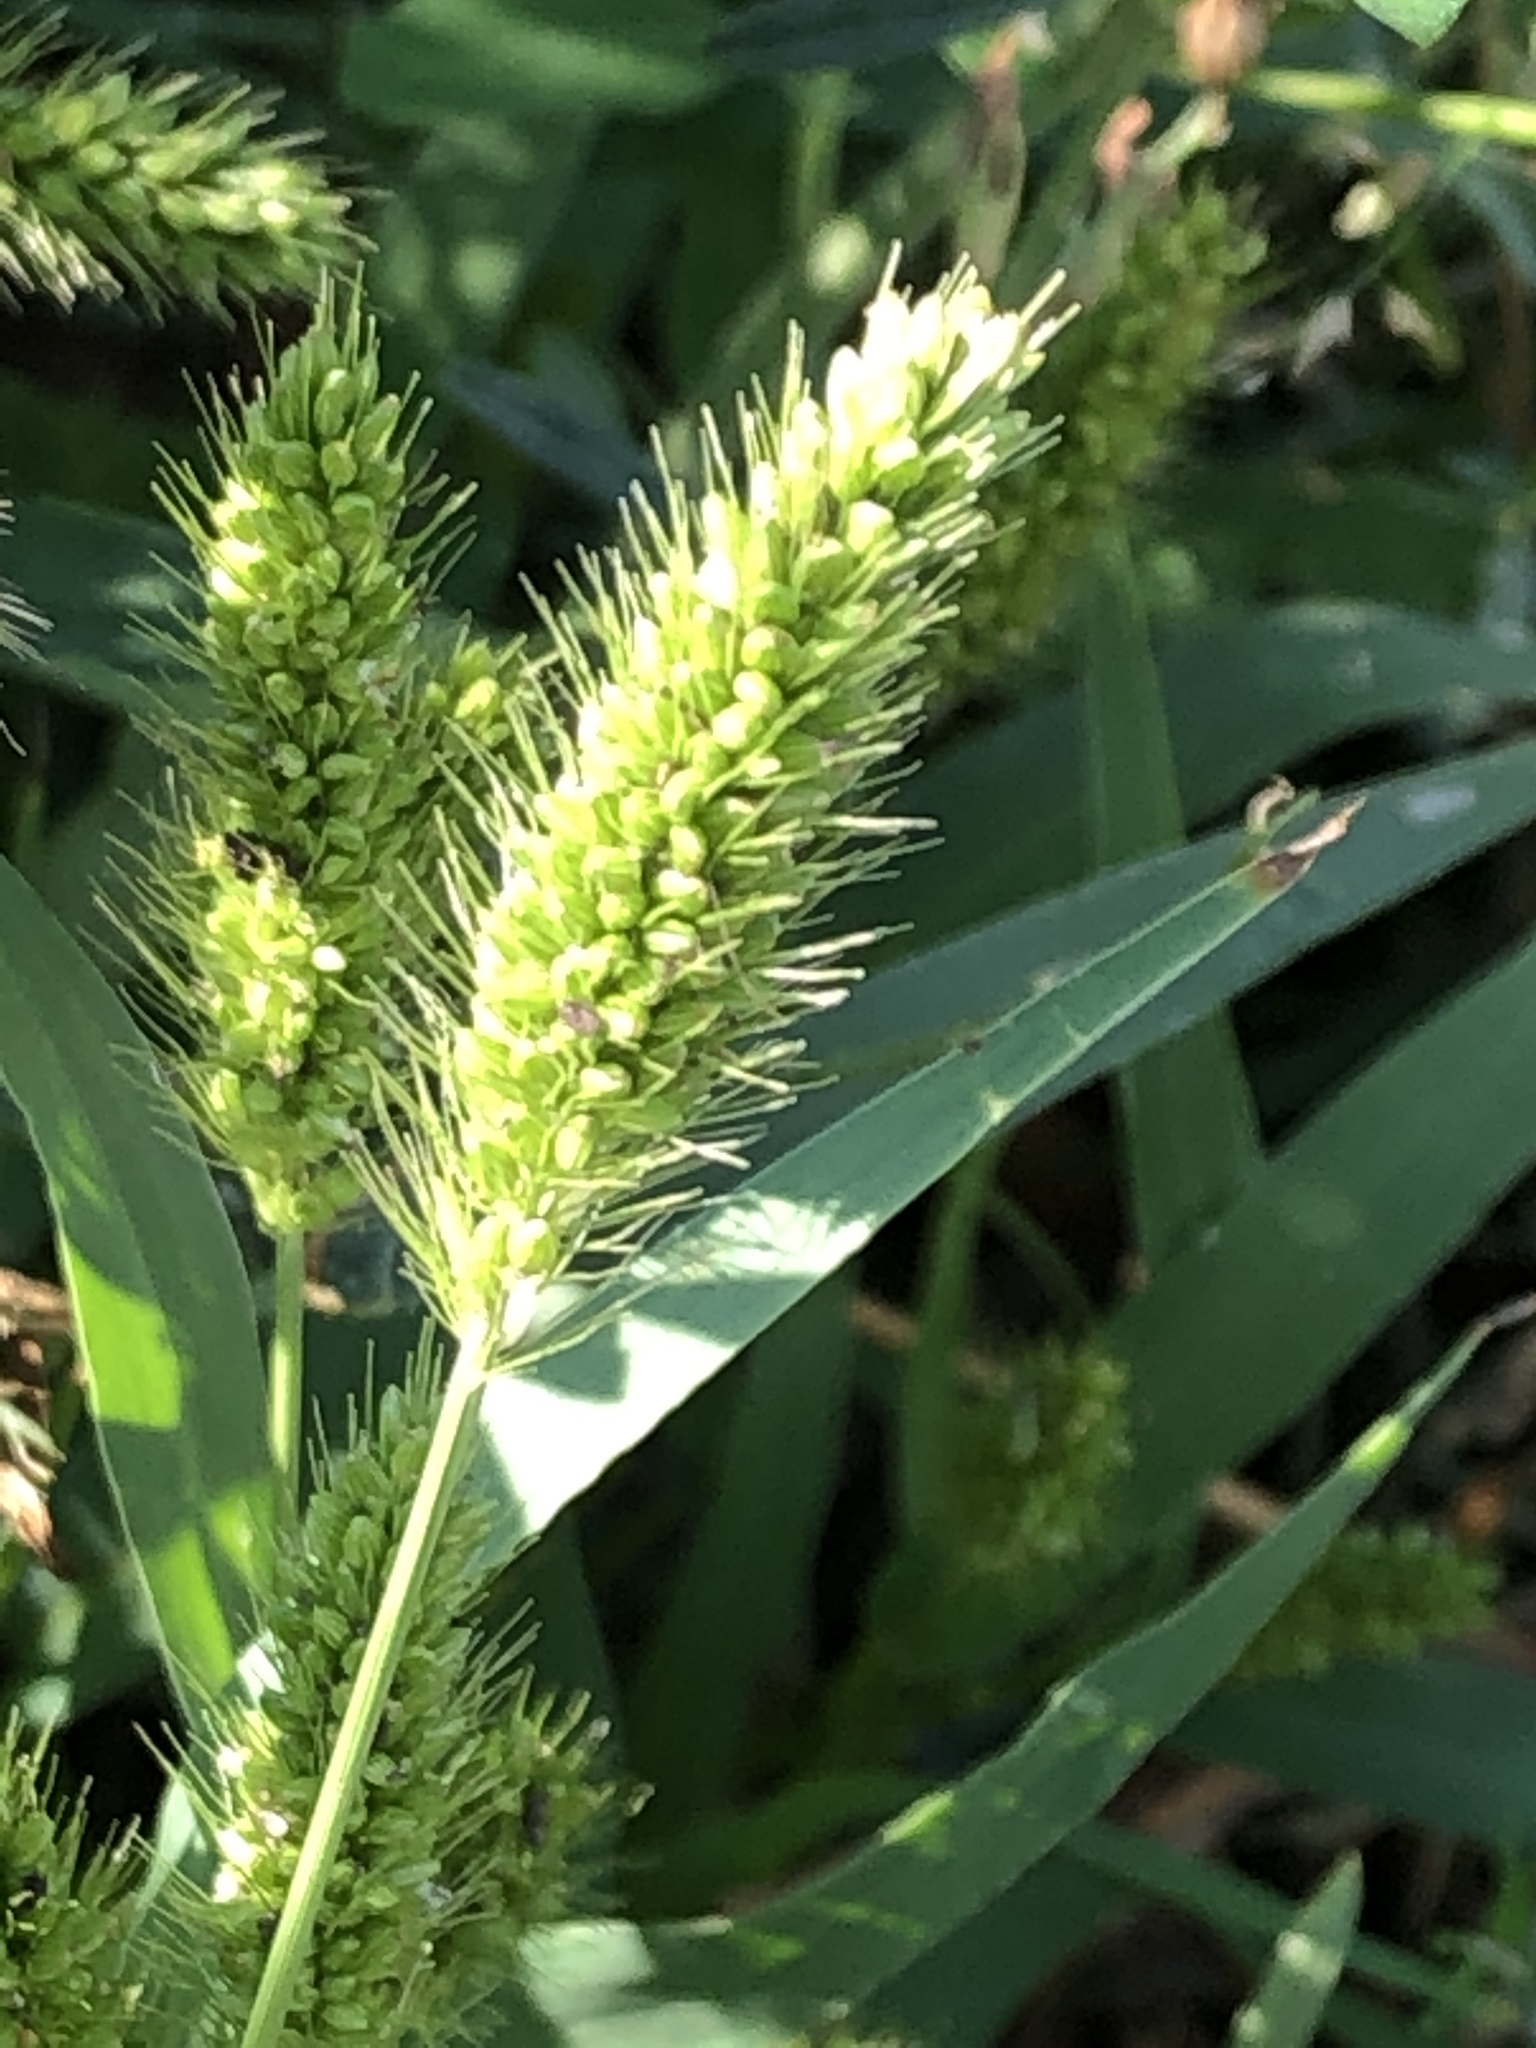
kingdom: Plantae
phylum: Tracheophyta
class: Liliopsida
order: Poales
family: Poaceae
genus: Setaria
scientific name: Setaria viridis
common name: Green bristlegrass
